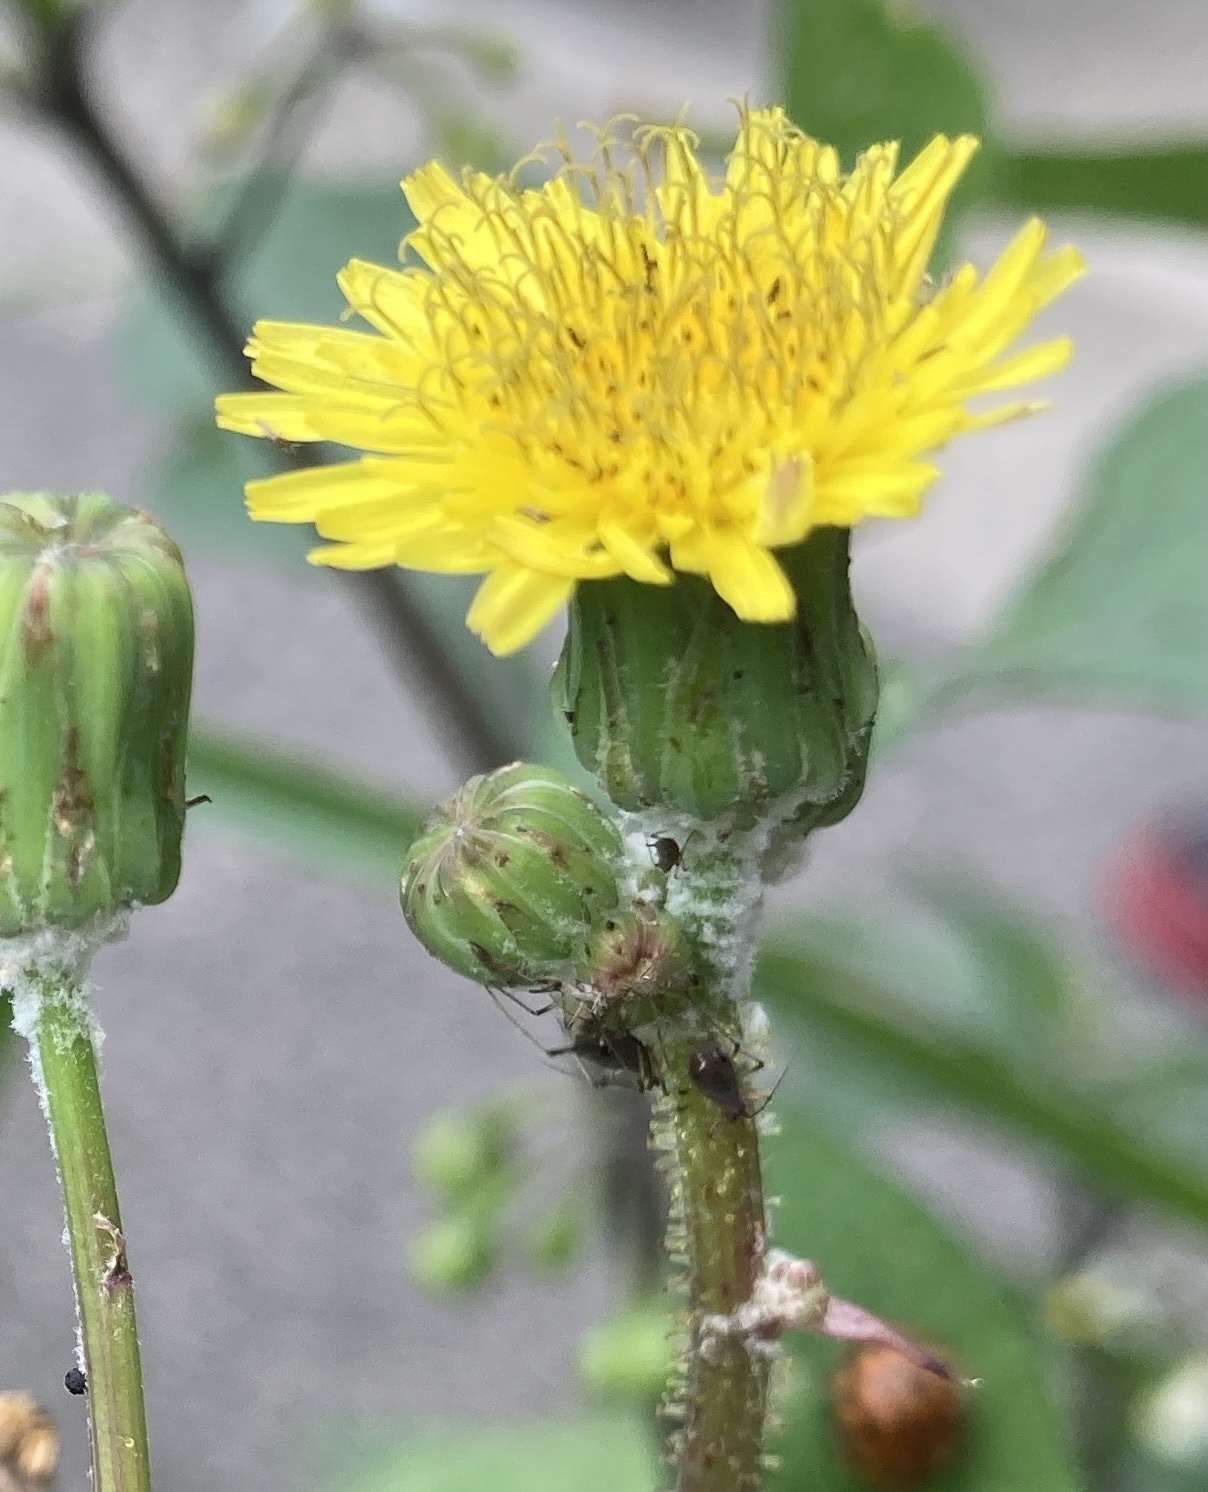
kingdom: Plantae
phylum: Tracheophyta
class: Magnoliopsida
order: Asterales
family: Asteraceae
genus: Sonchus
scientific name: Sonchus oleraceus
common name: Common sowthistle
